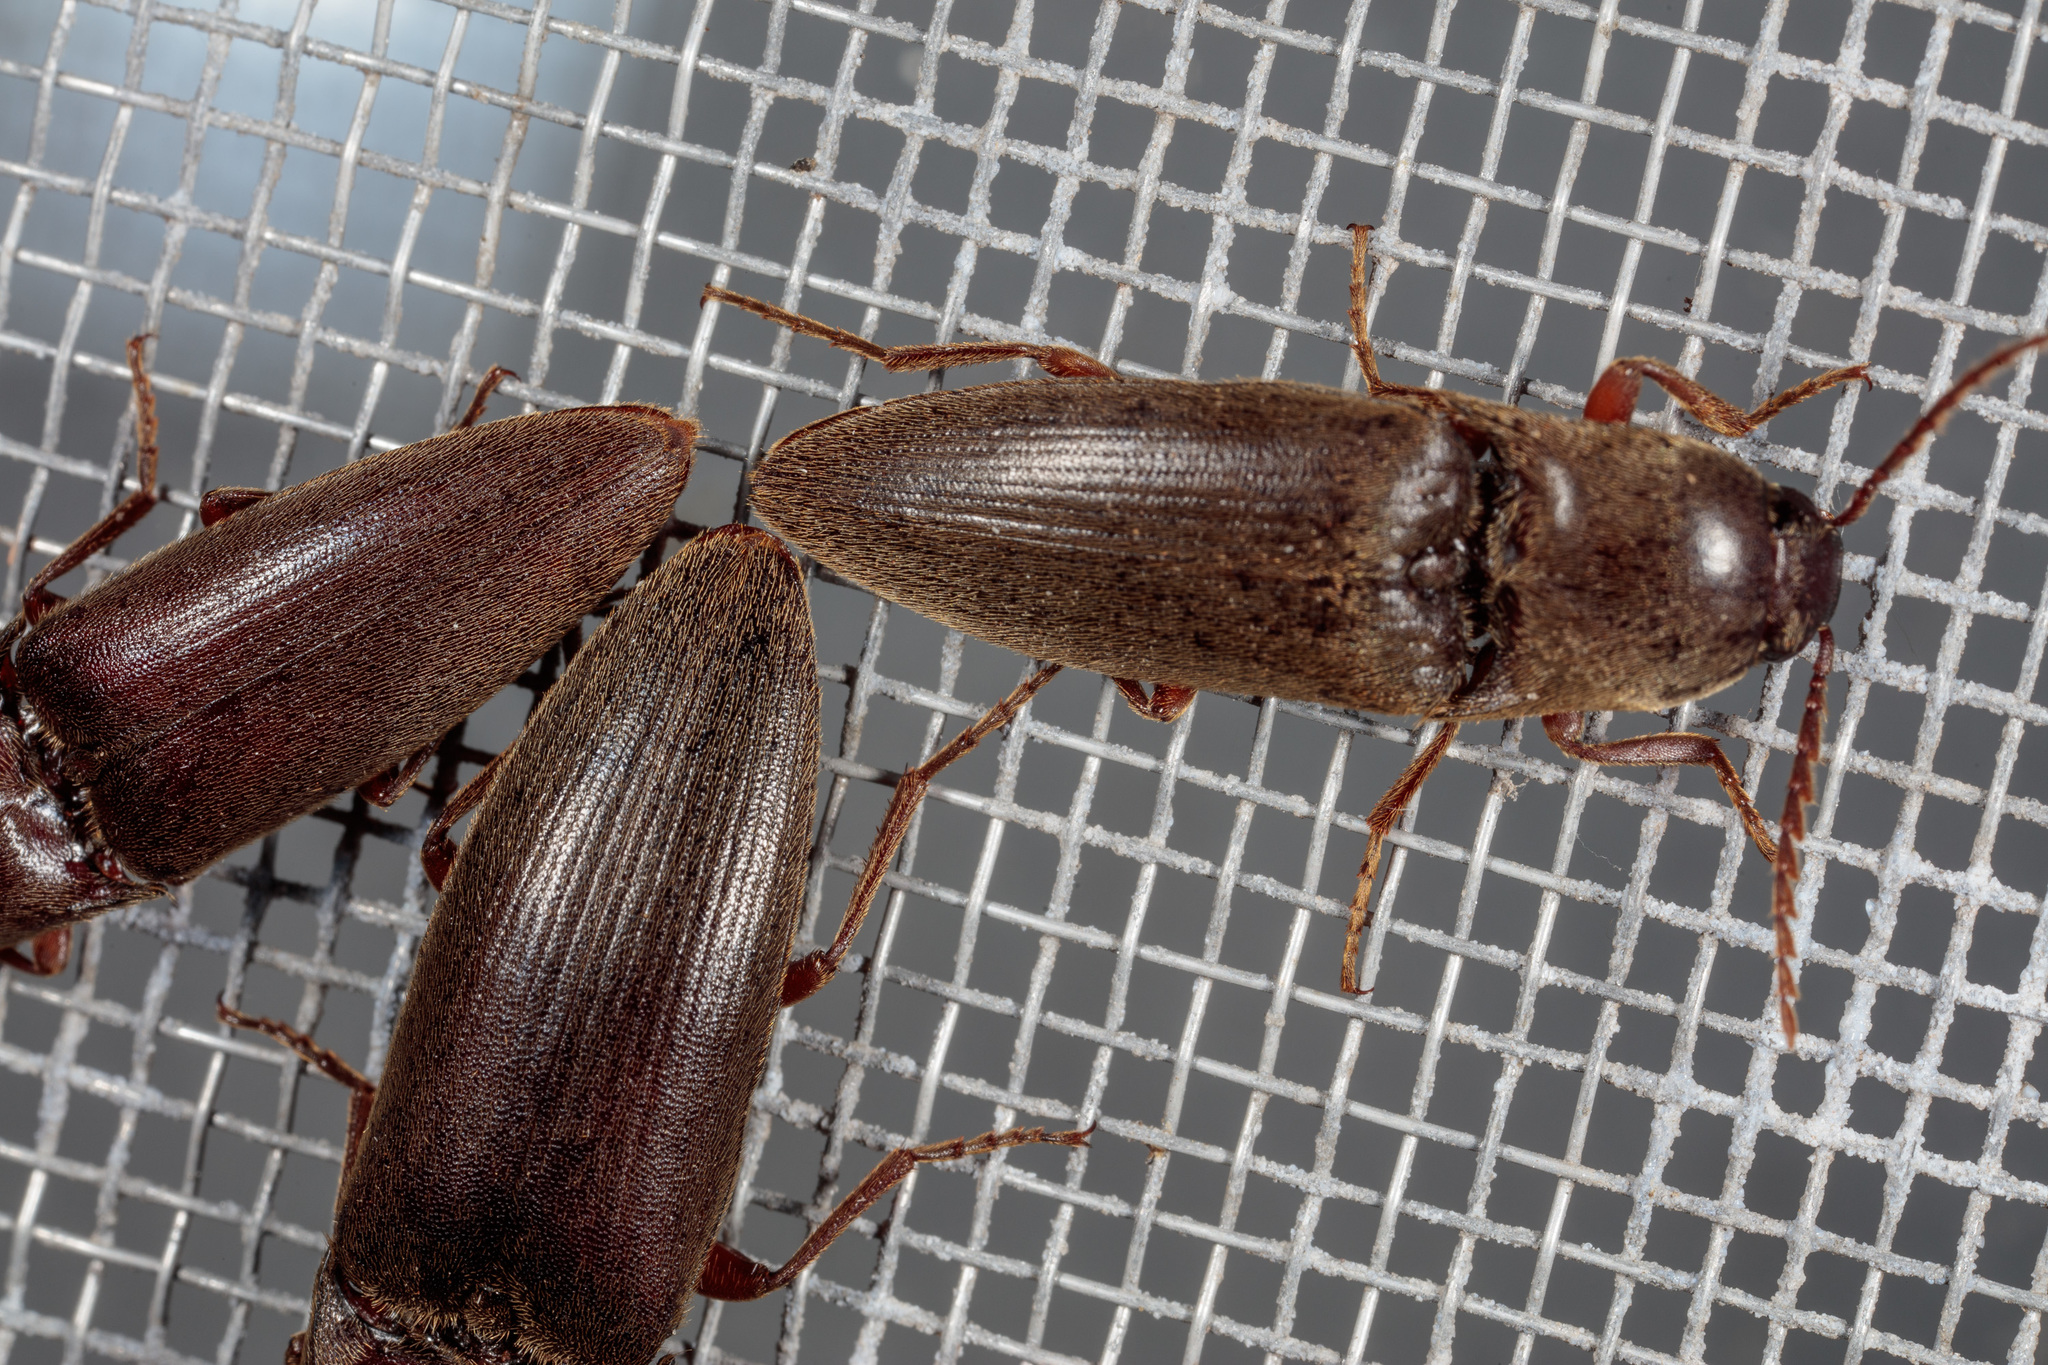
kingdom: Animalia
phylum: Arthropoda
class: Insecta
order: Coleoptera
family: Elateridae
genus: Diplostethus
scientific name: Diplostethus
